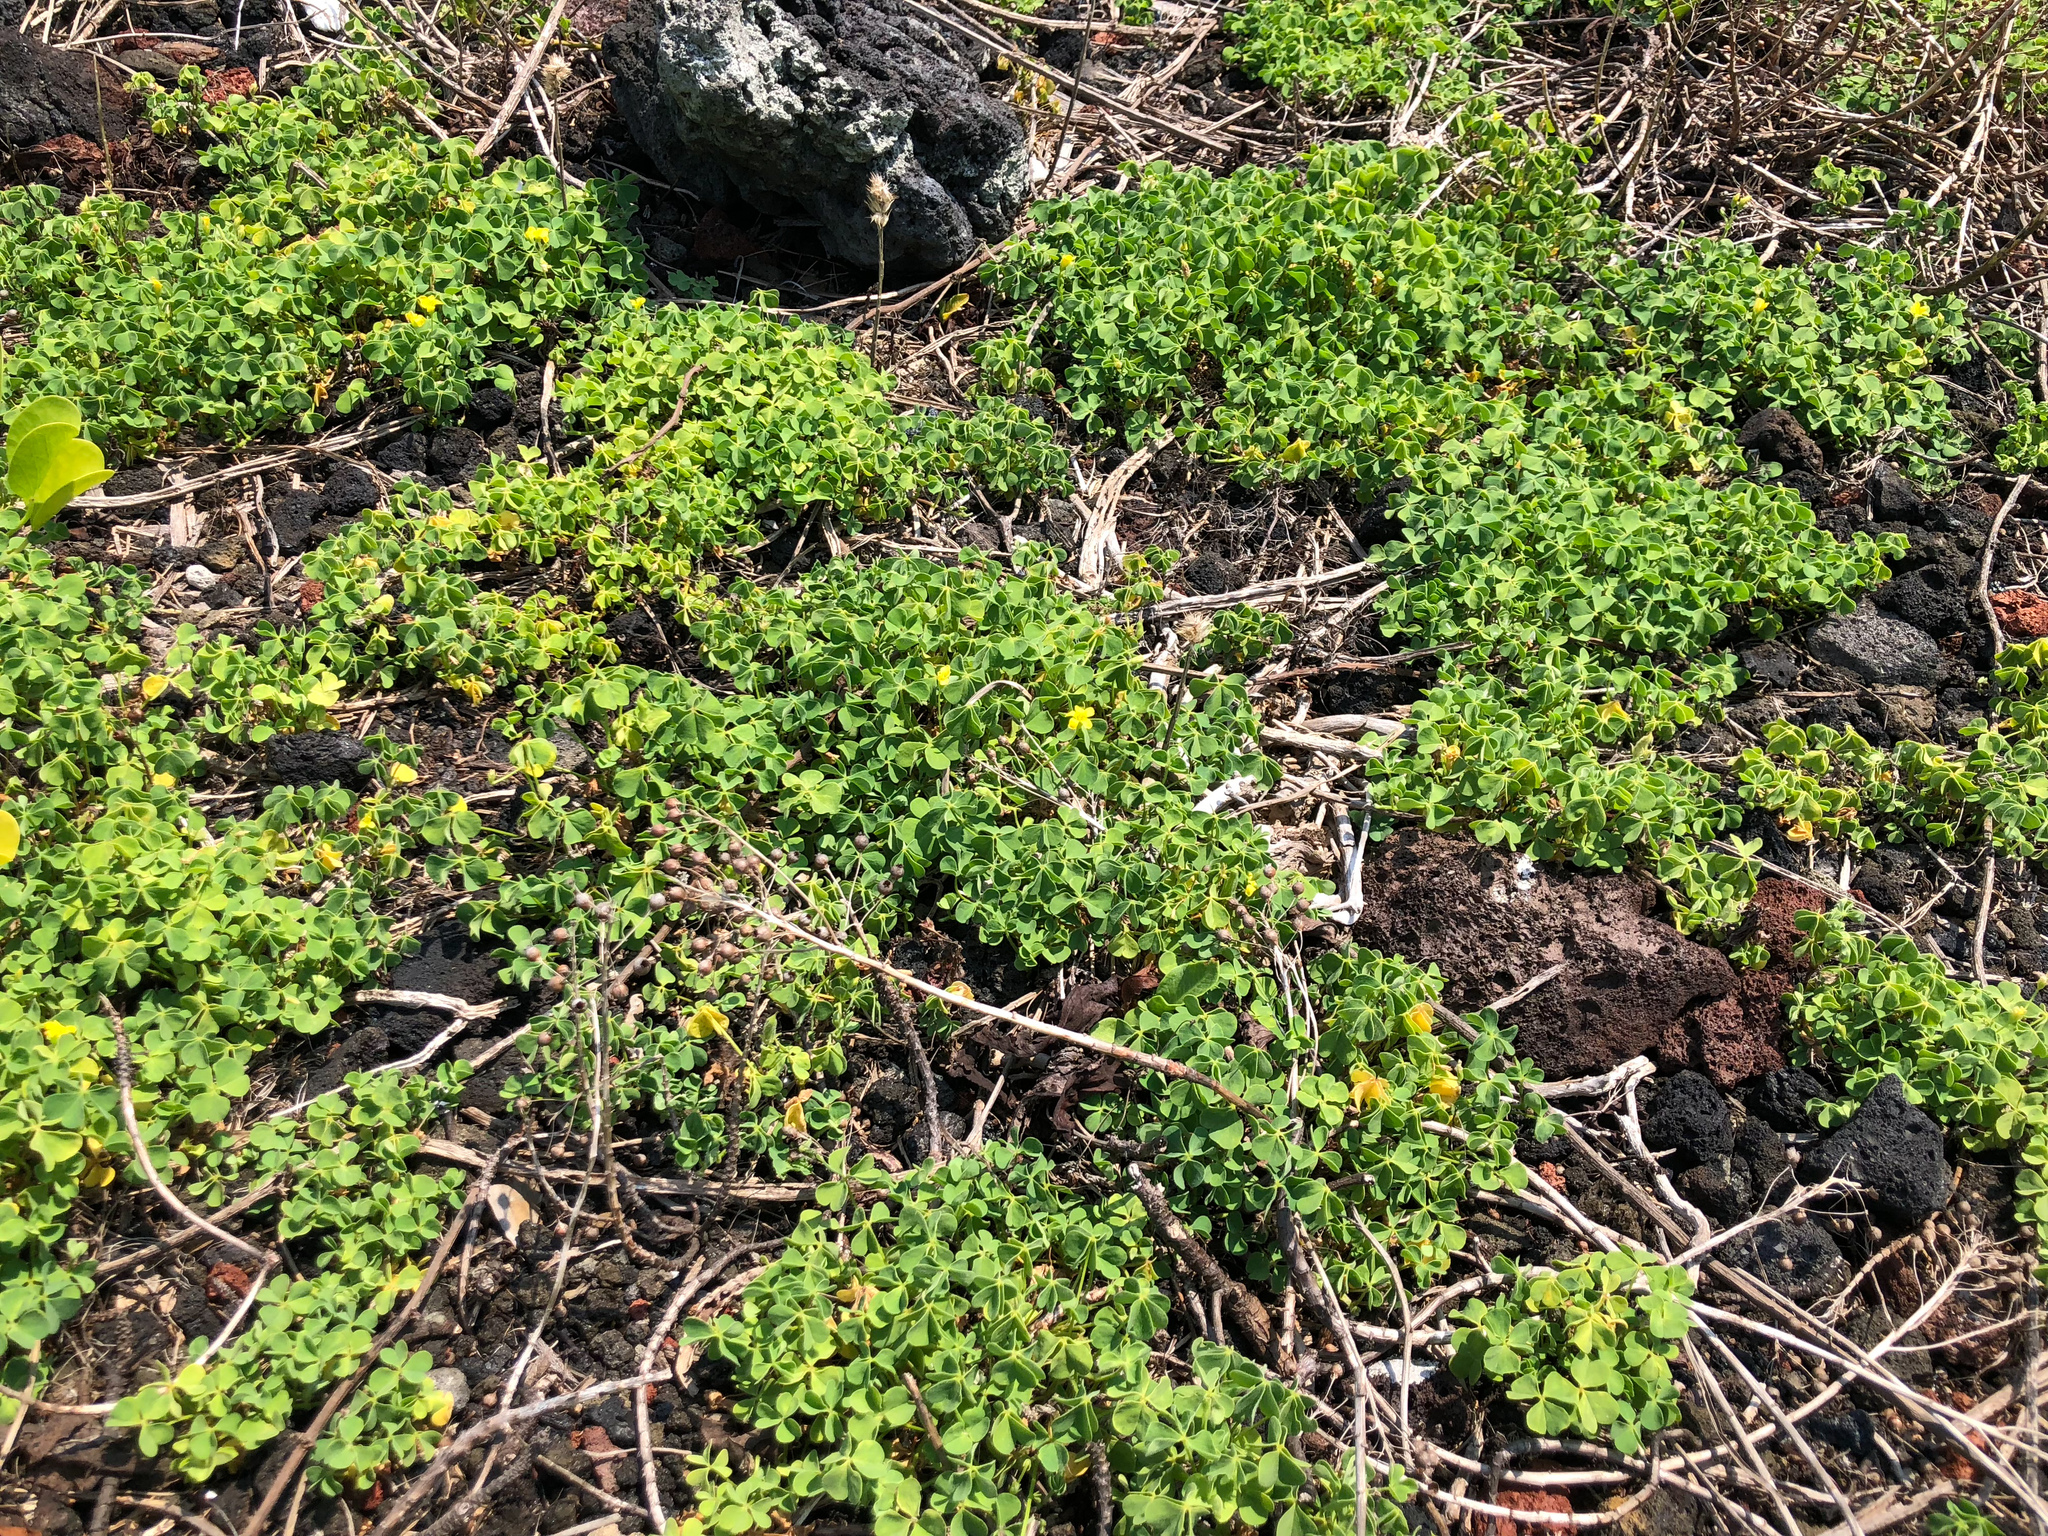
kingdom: Plantae
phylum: Tracheophyta
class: Magnoliopsida
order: Oxalidales
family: Oxalidaceae
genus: Oxalis
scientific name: Oxalis corniculata
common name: Procumbent yellow-sorrel
